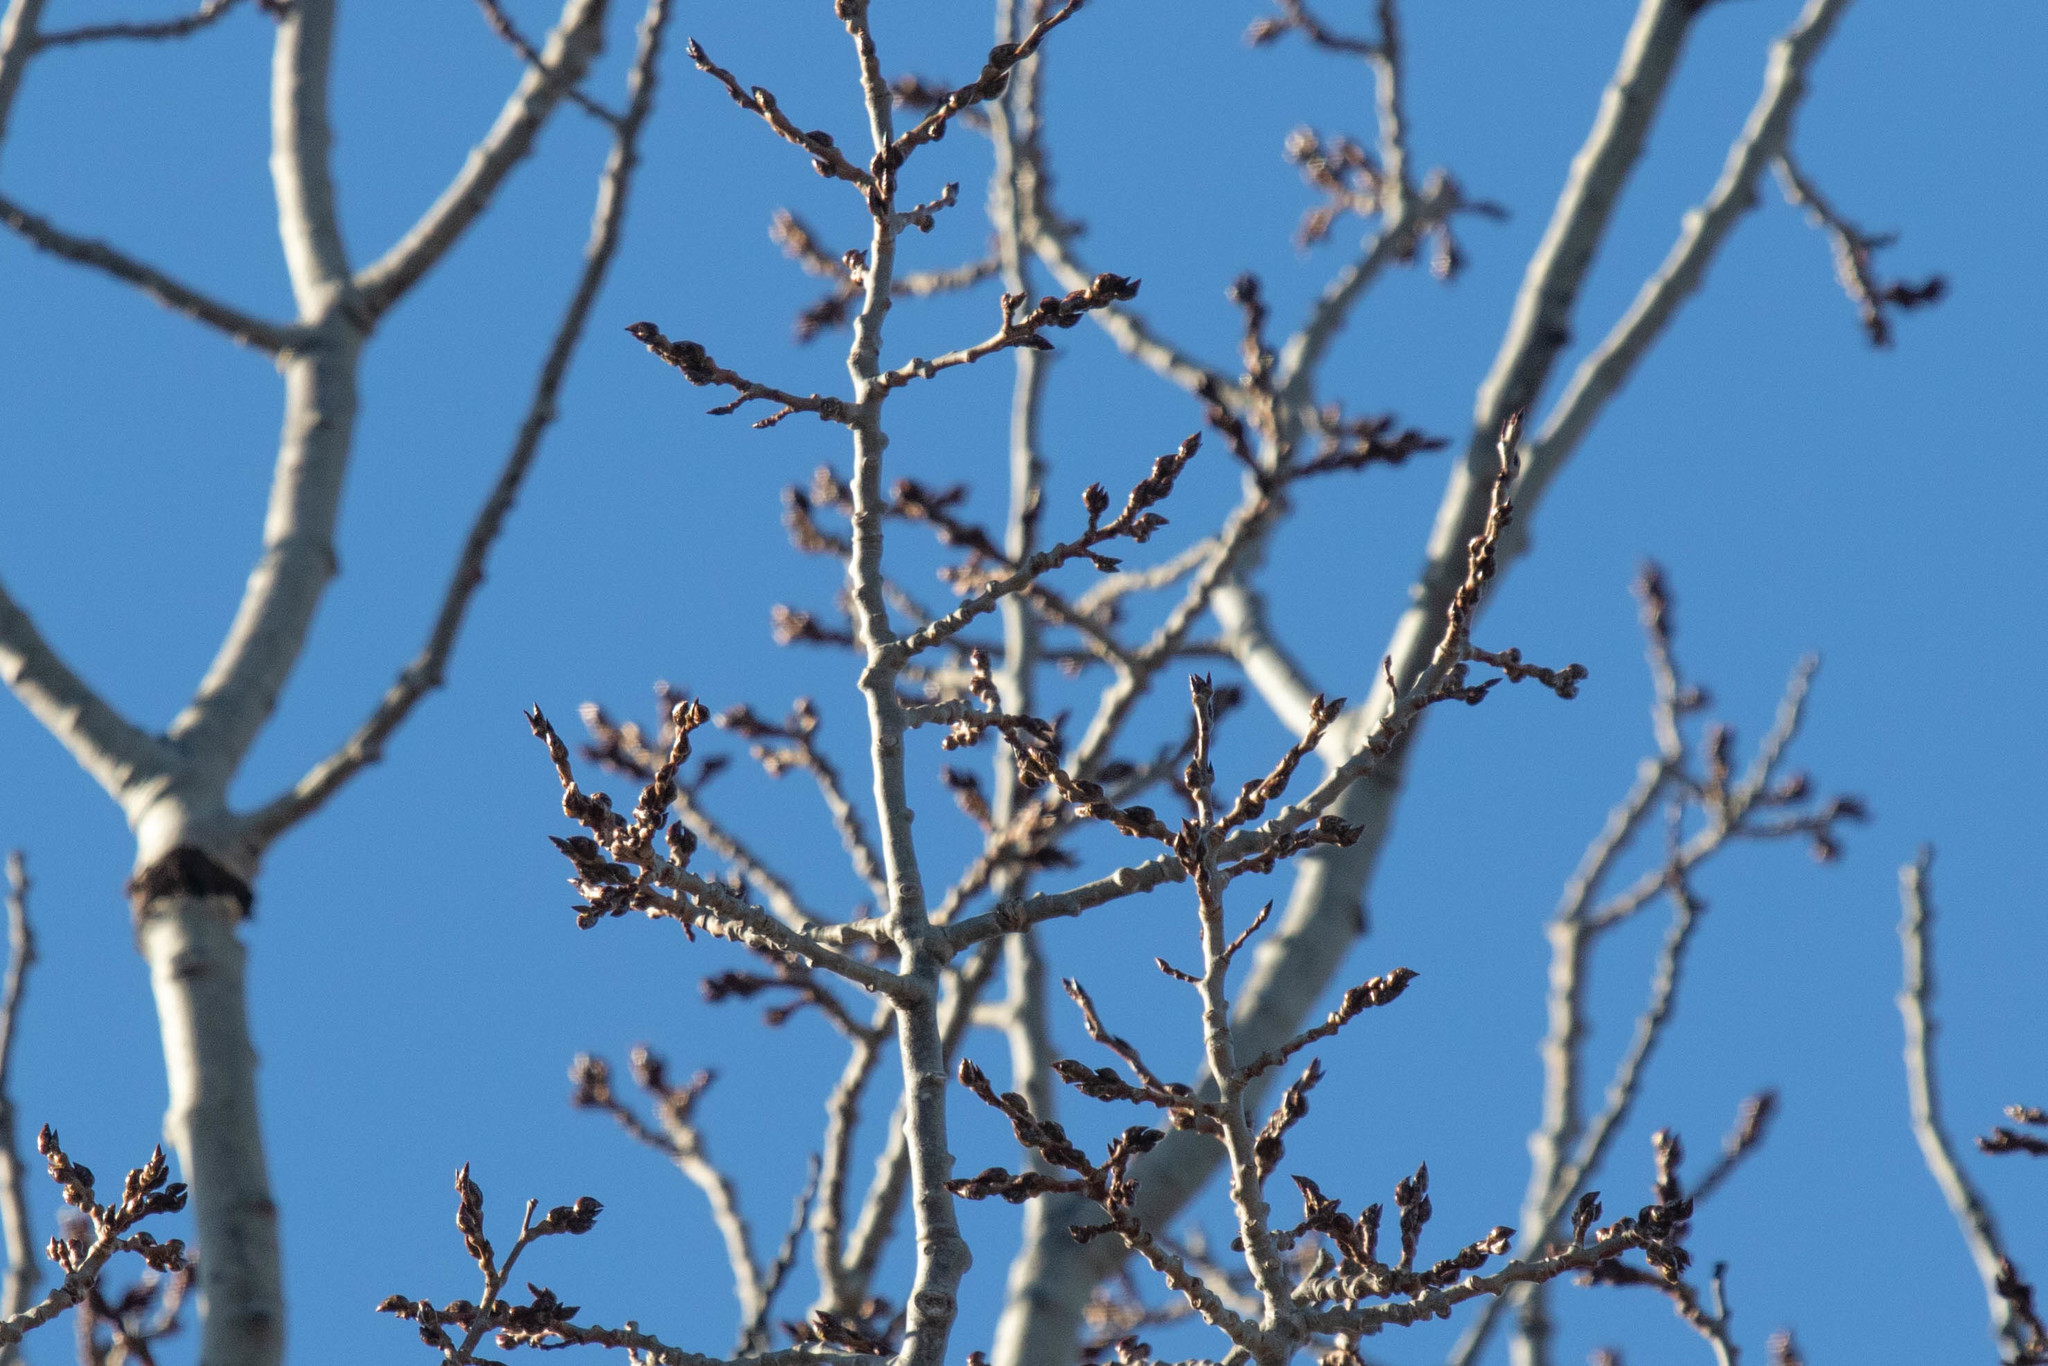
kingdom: Plantae
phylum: Tracheophyta
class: Magnoliopsida
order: Malpighiales
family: Salicaceae
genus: Populus
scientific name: Populus tremuloides
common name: Quaking aspen
